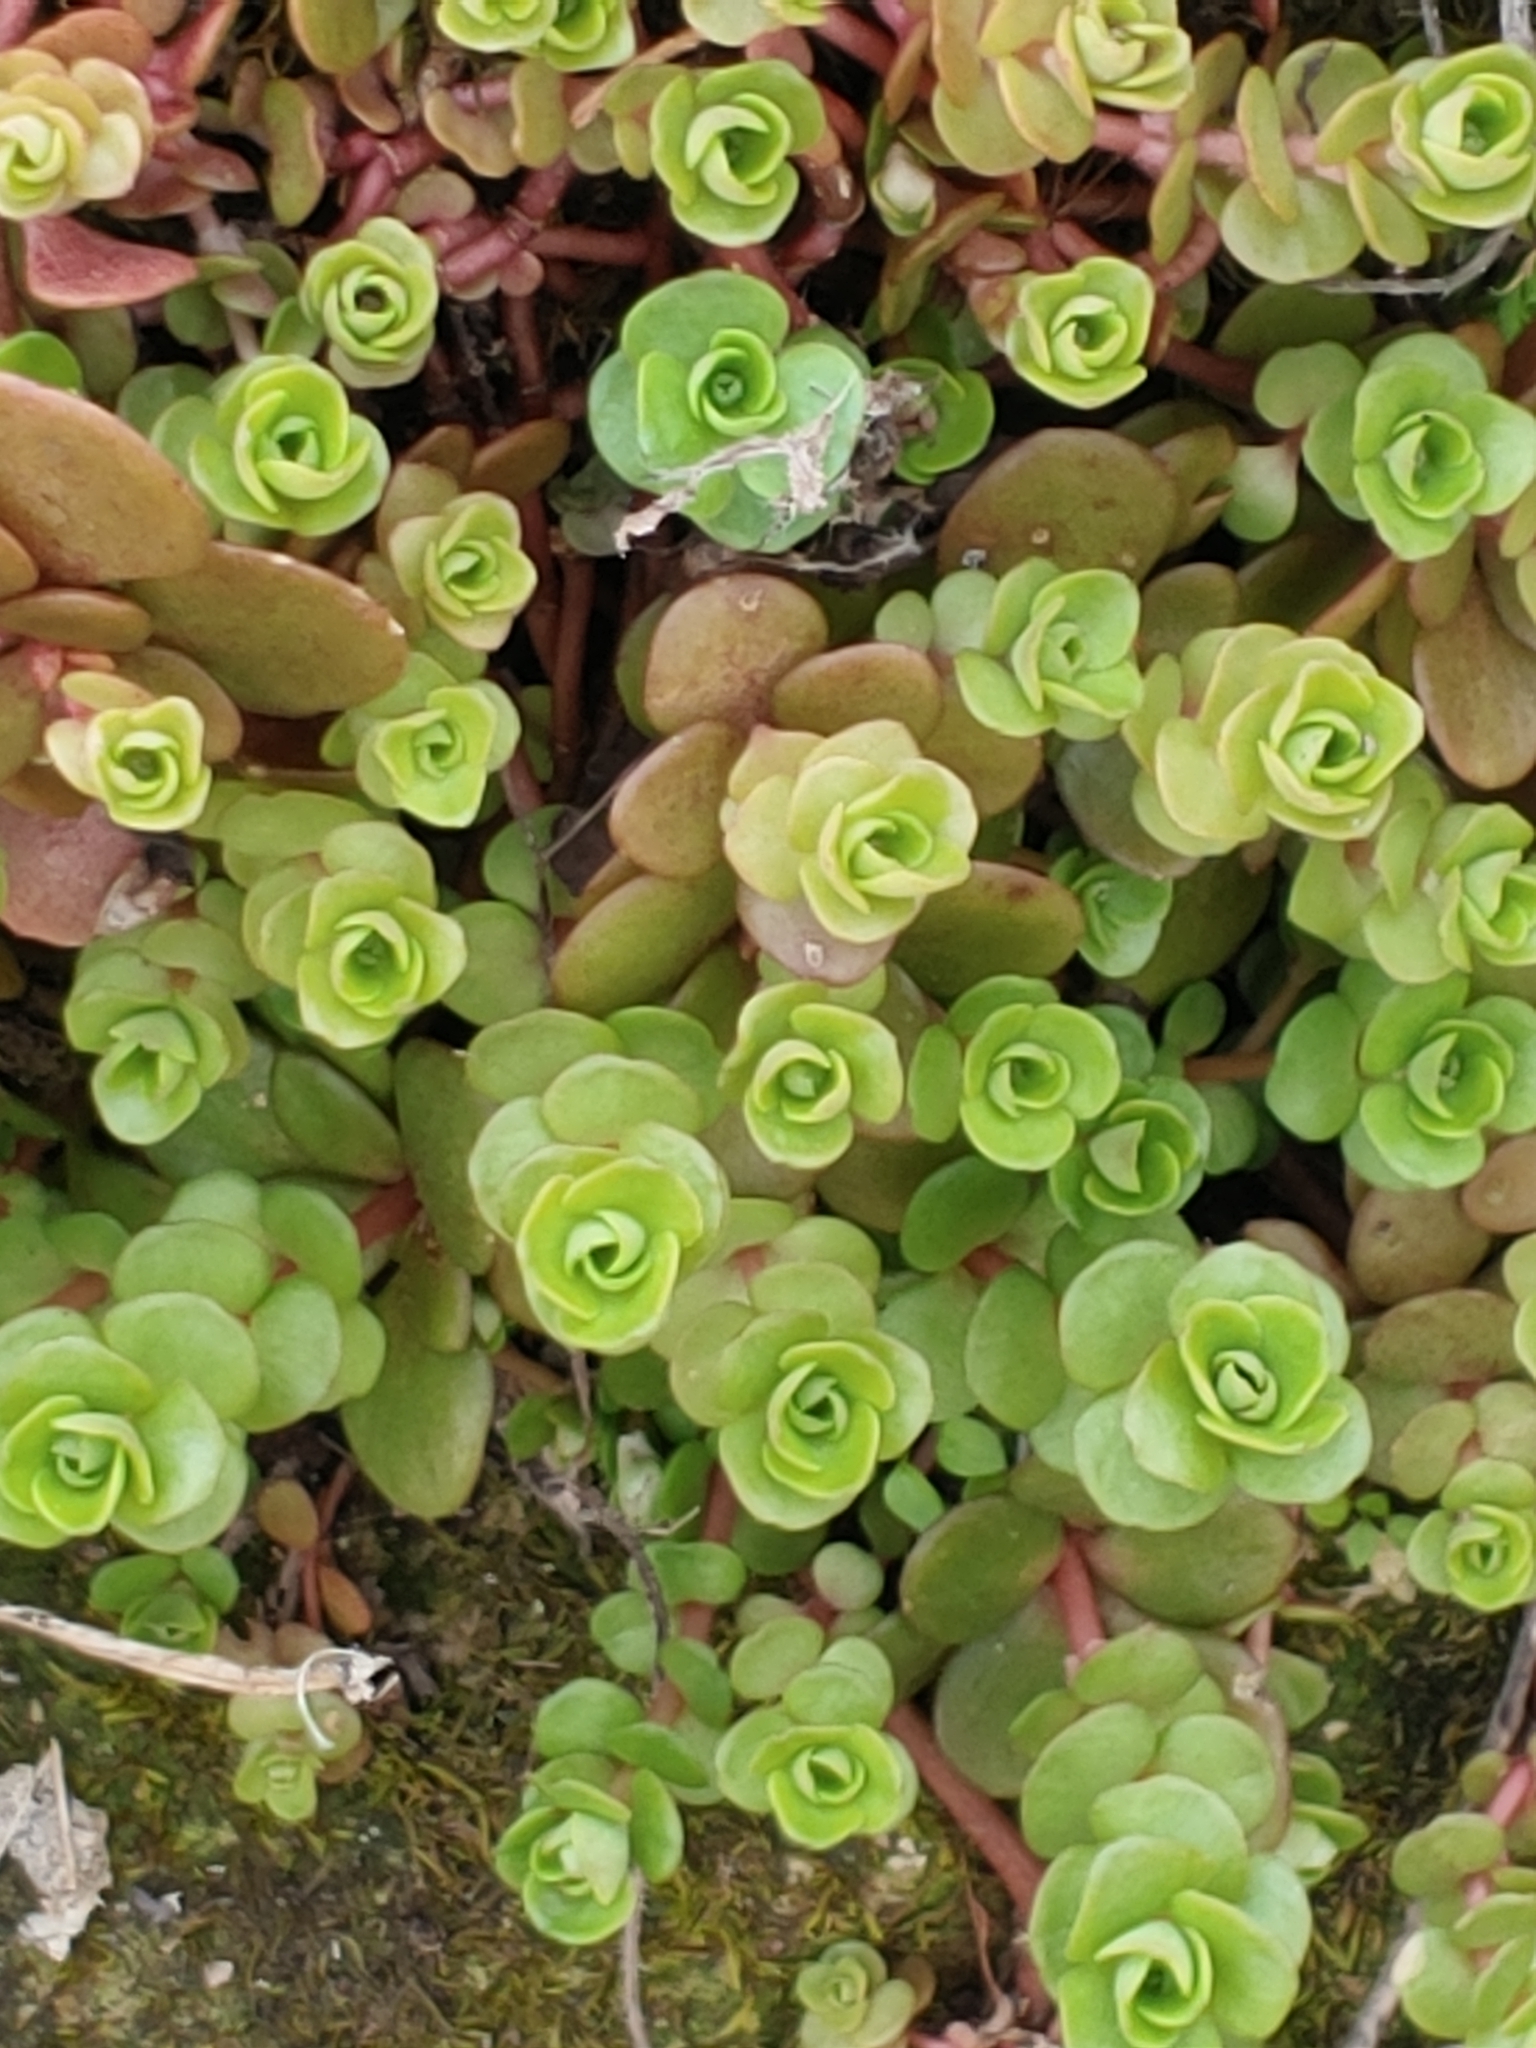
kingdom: Plantae
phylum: Tracheophyta
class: Magnoliopsida
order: Saxifragales
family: Crassulaceae
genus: Sedum
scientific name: Sedum ternatum
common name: Wild stonecrop
